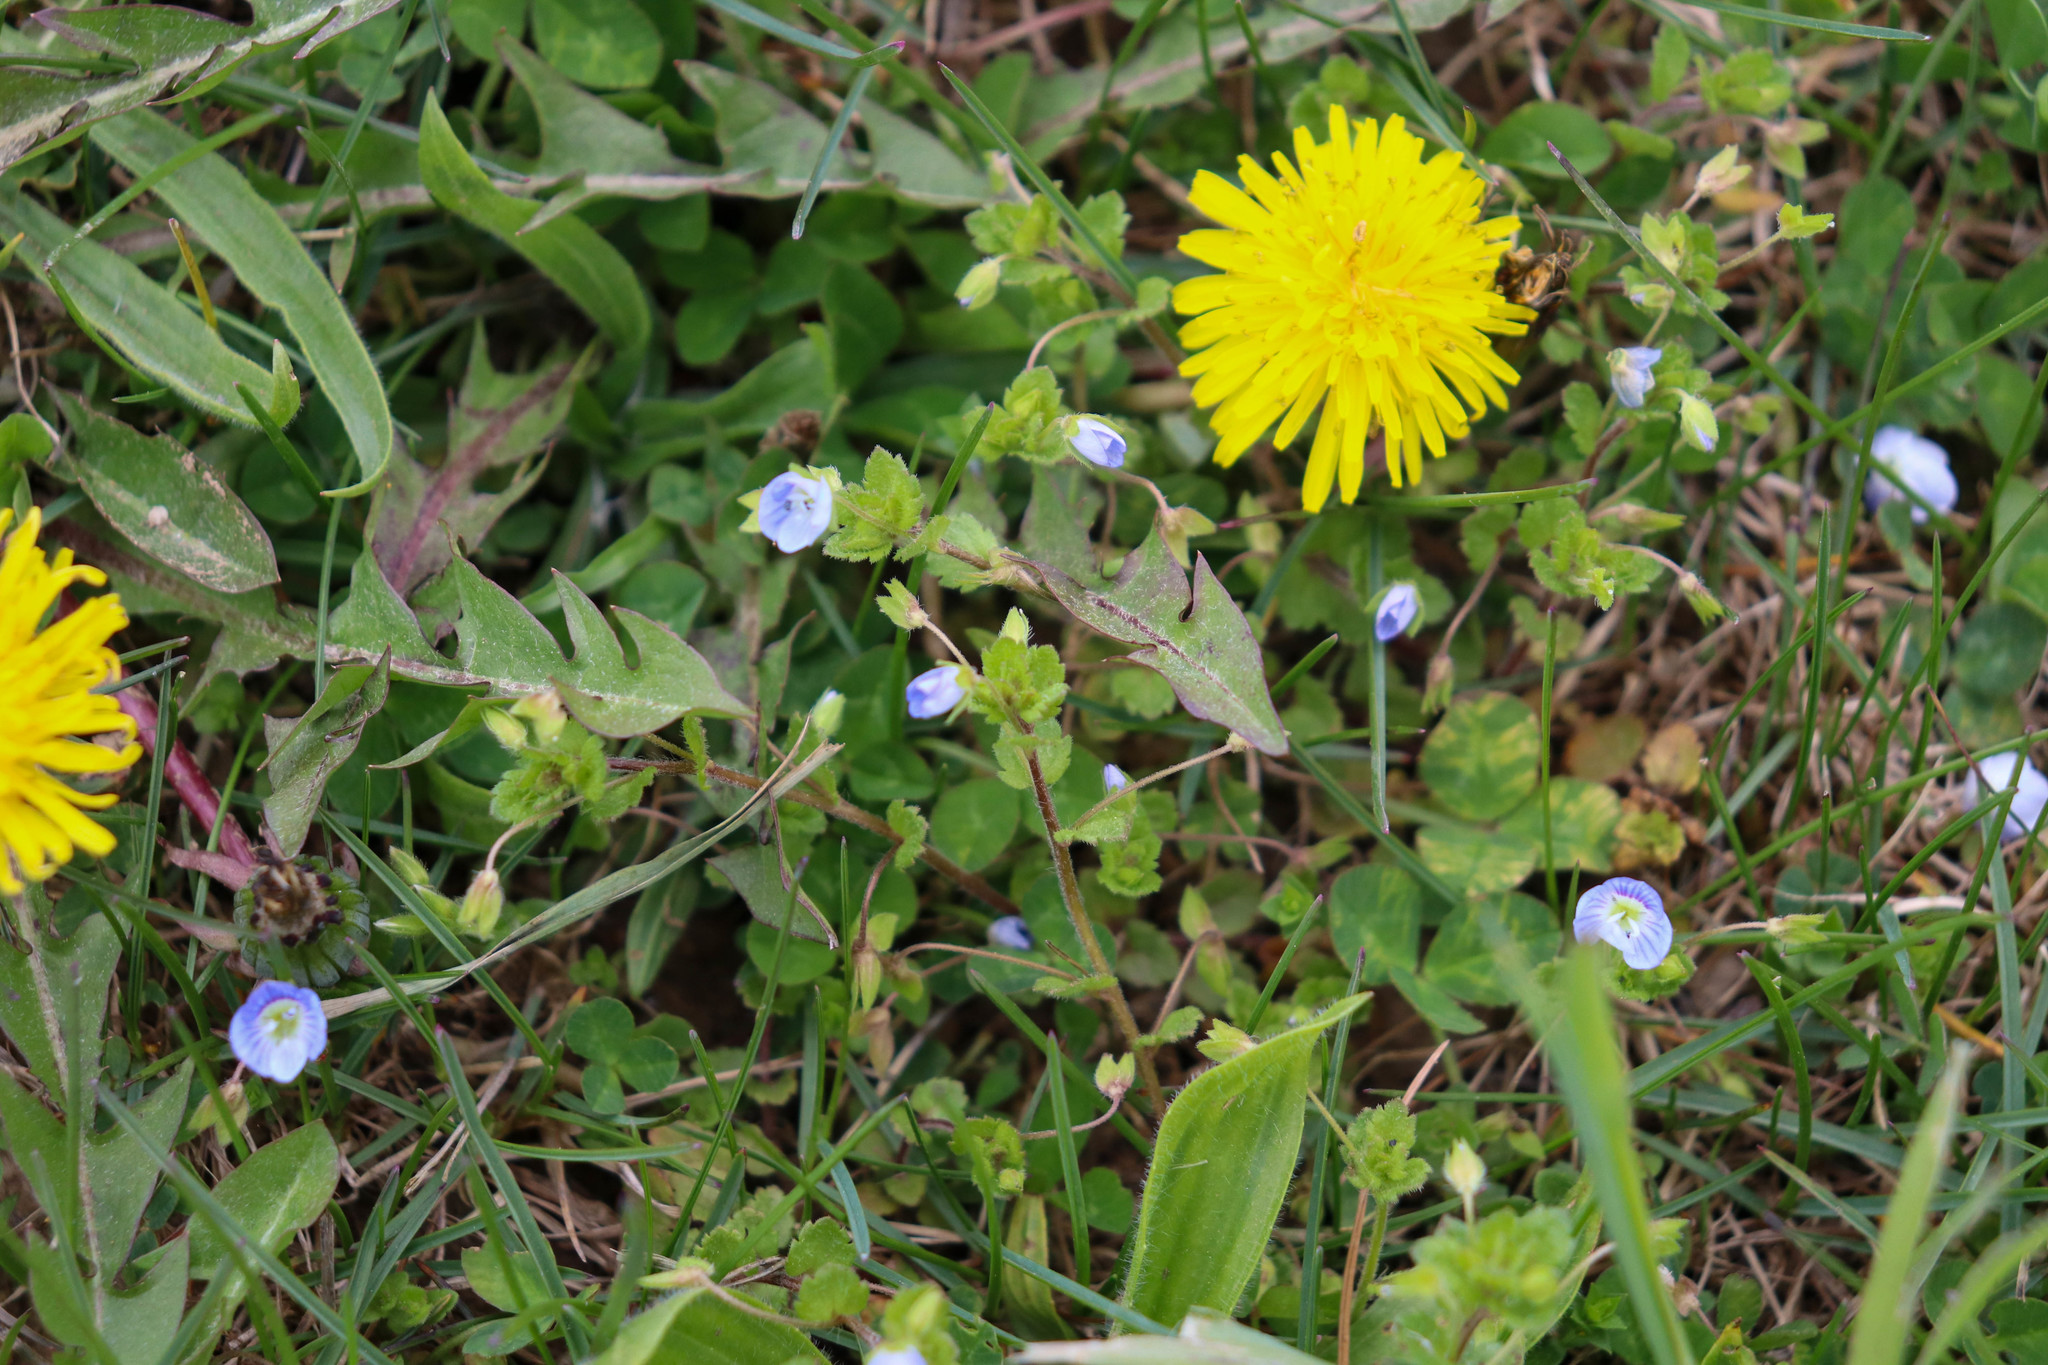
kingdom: Plantae
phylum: Tracheophyta
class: Magnoliopsida
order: Lamiales
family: Plantaginaceae
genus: Veronica
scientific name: Veronica persica
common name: Common field-speedwell
